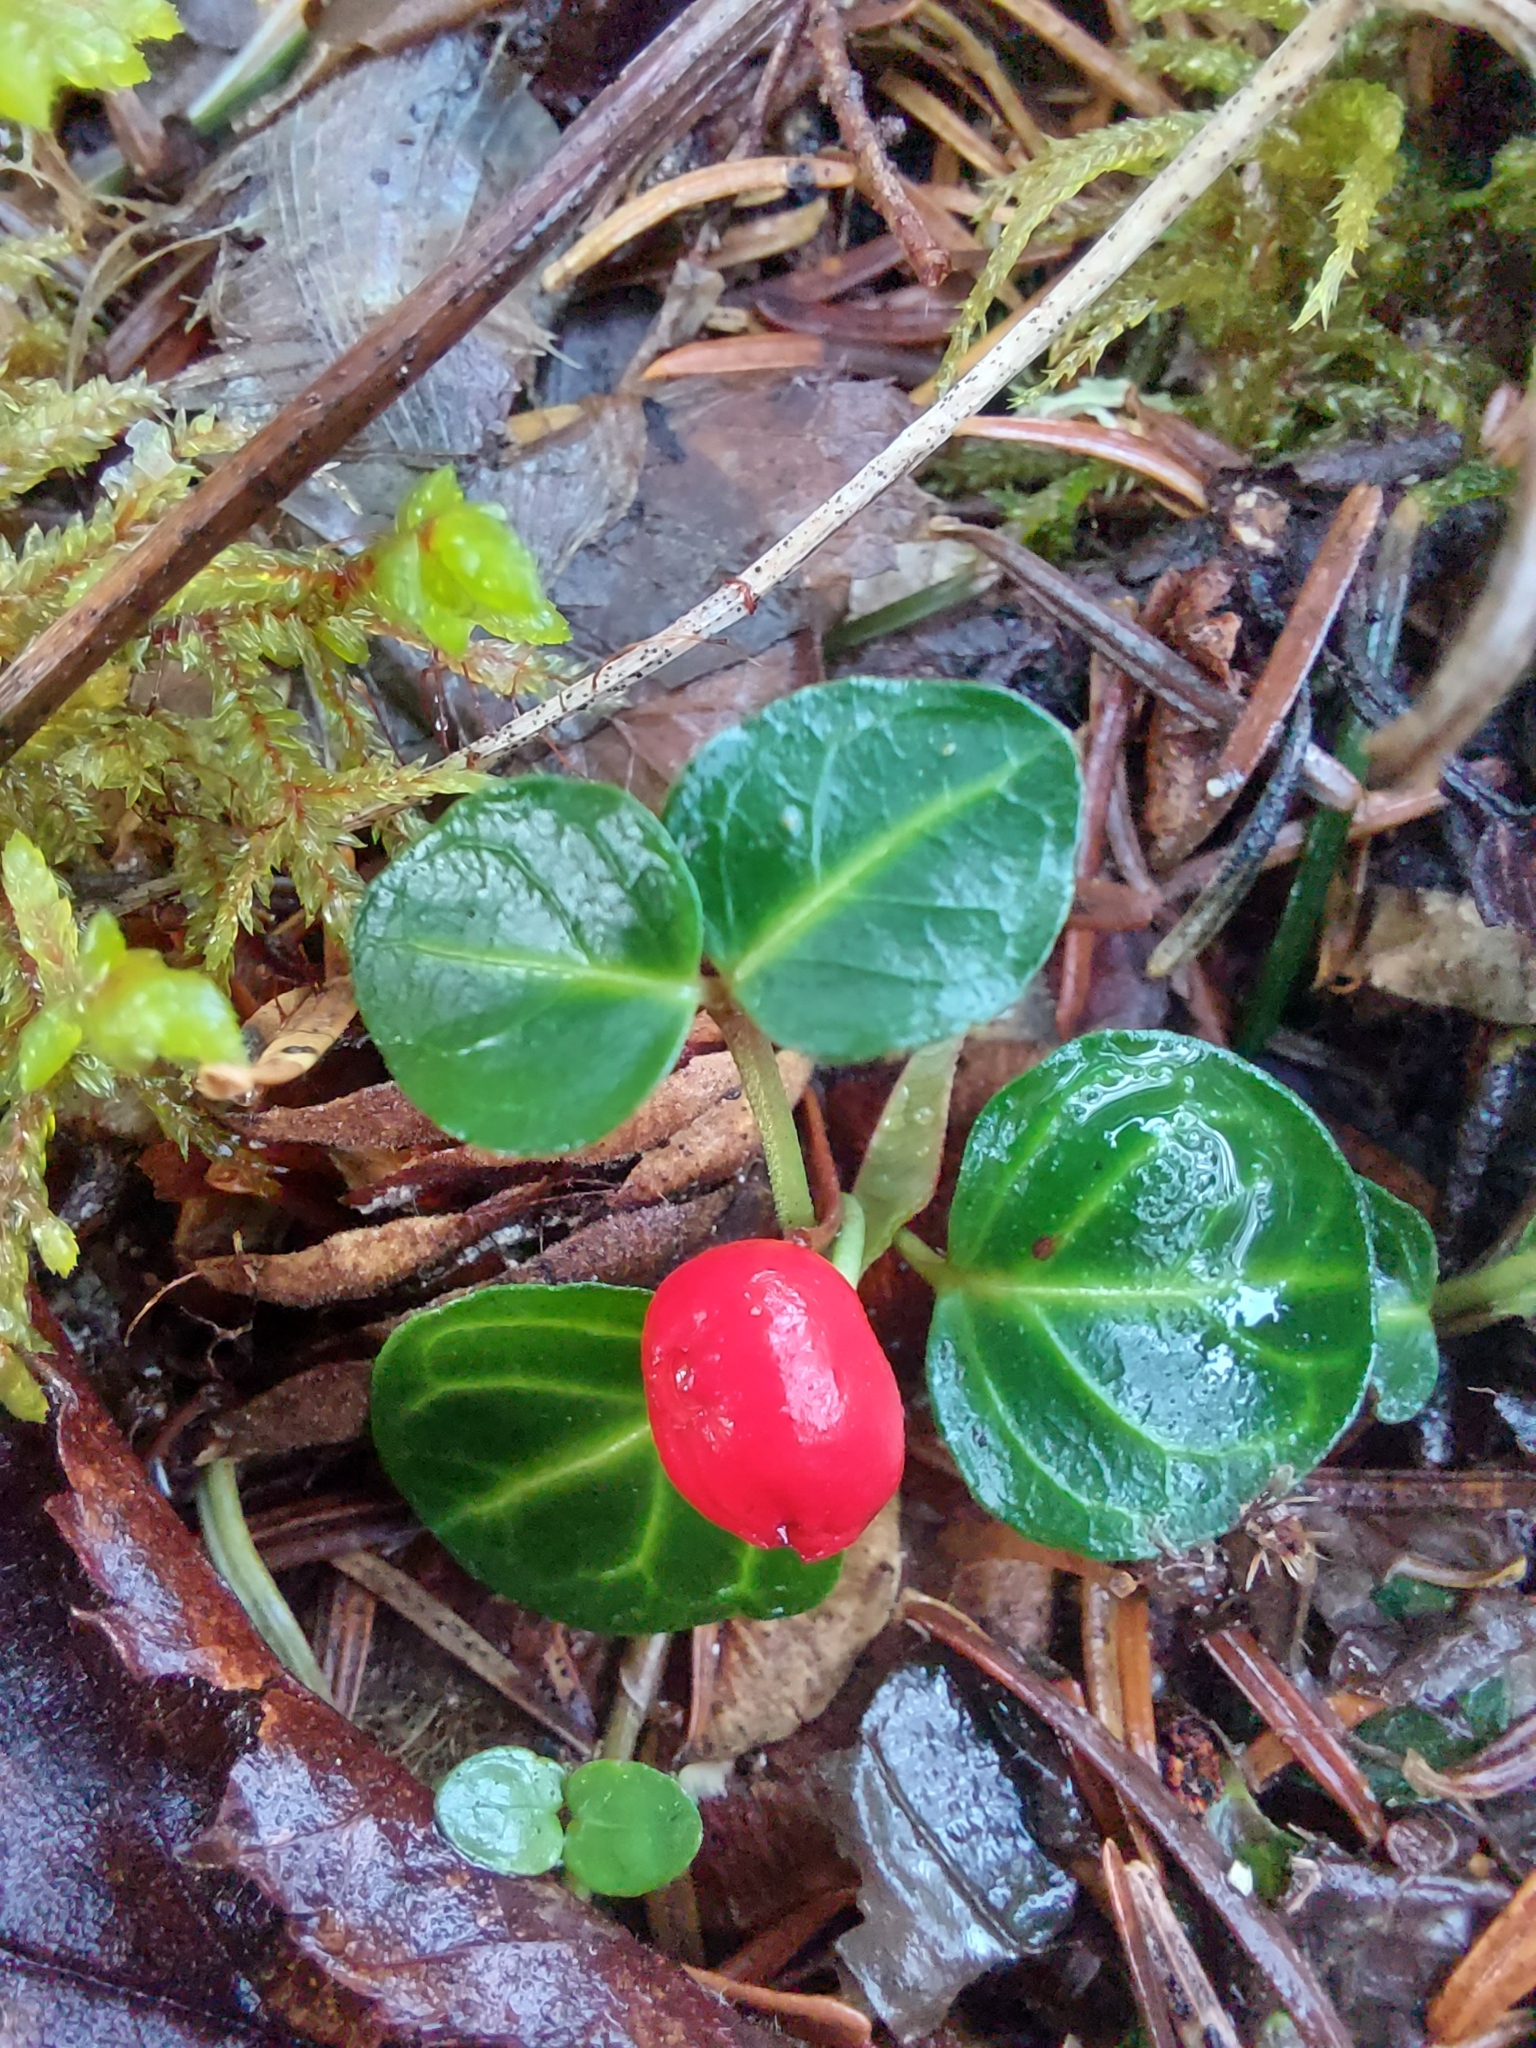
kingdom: Plantae
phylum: Tracheophyta
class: Magnoliopsida
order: Gentianales
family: Rubiaceae
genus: Mitchella
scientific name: Mitchella repens
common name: Partridge-berry
